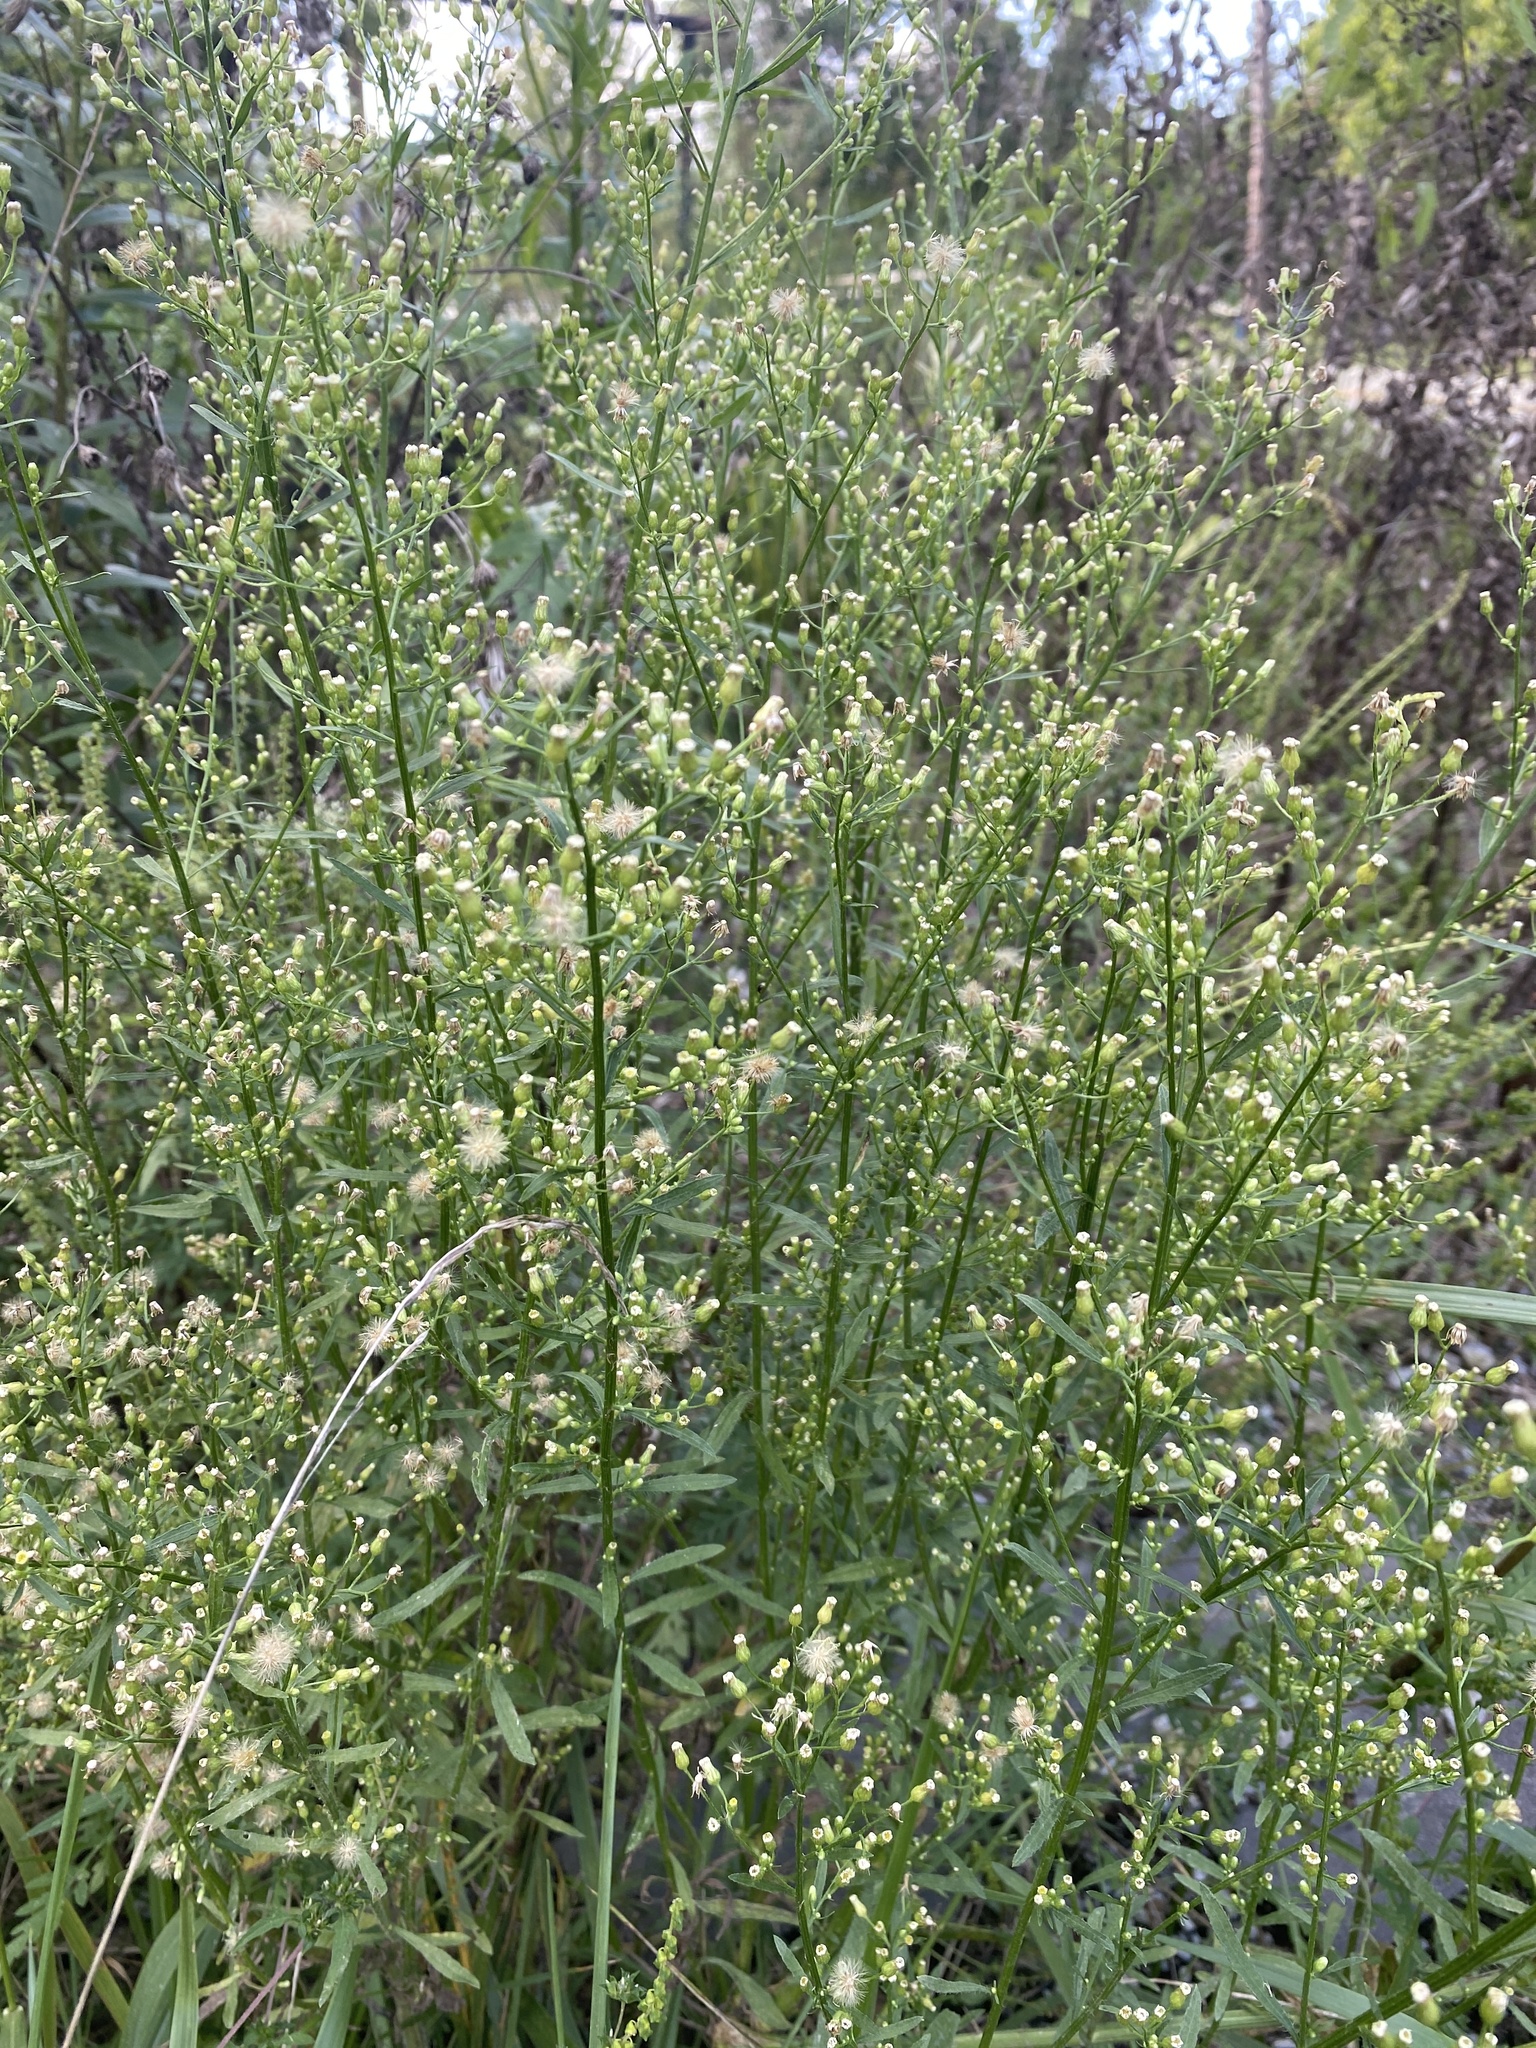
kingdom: Plantae
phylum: Tracheophyta
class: Magnoliopsida
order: Asterales
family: Asteraceae
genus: Erigeron
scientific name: Erigeron canadensis
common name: Canadian fleabane
